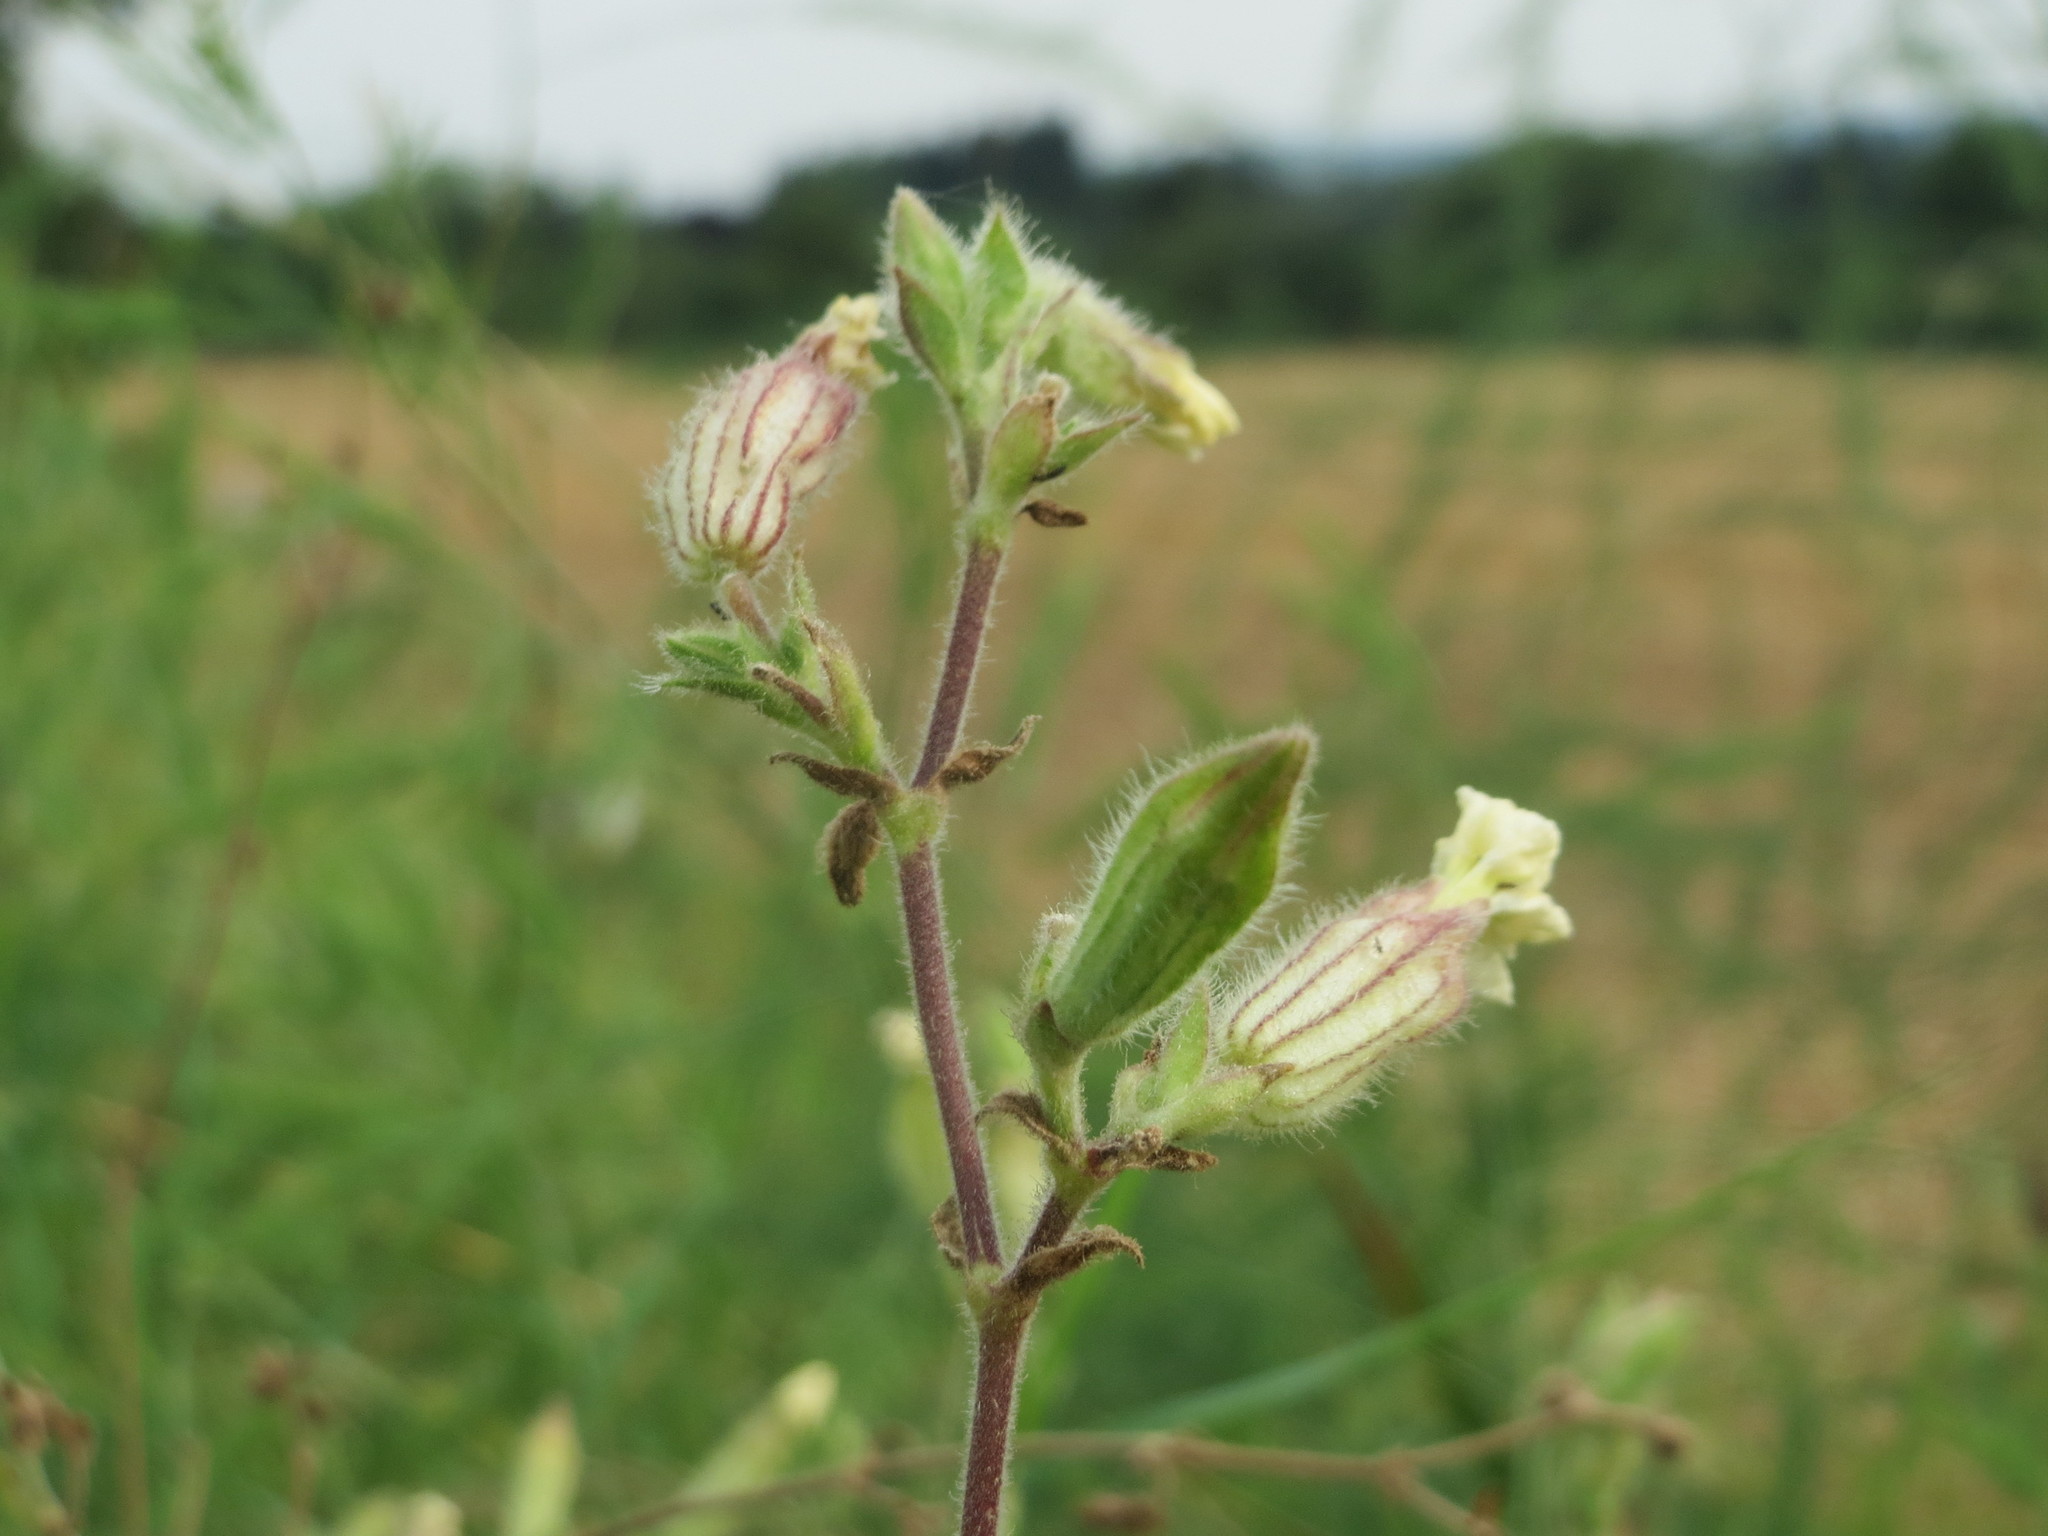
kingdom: Plantae
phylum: Tracheophyta
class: Magnoliopsida
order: Caryophyllales
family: Caryophyllaceae
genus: Silene
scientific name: Silene latifolia
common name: White campion
